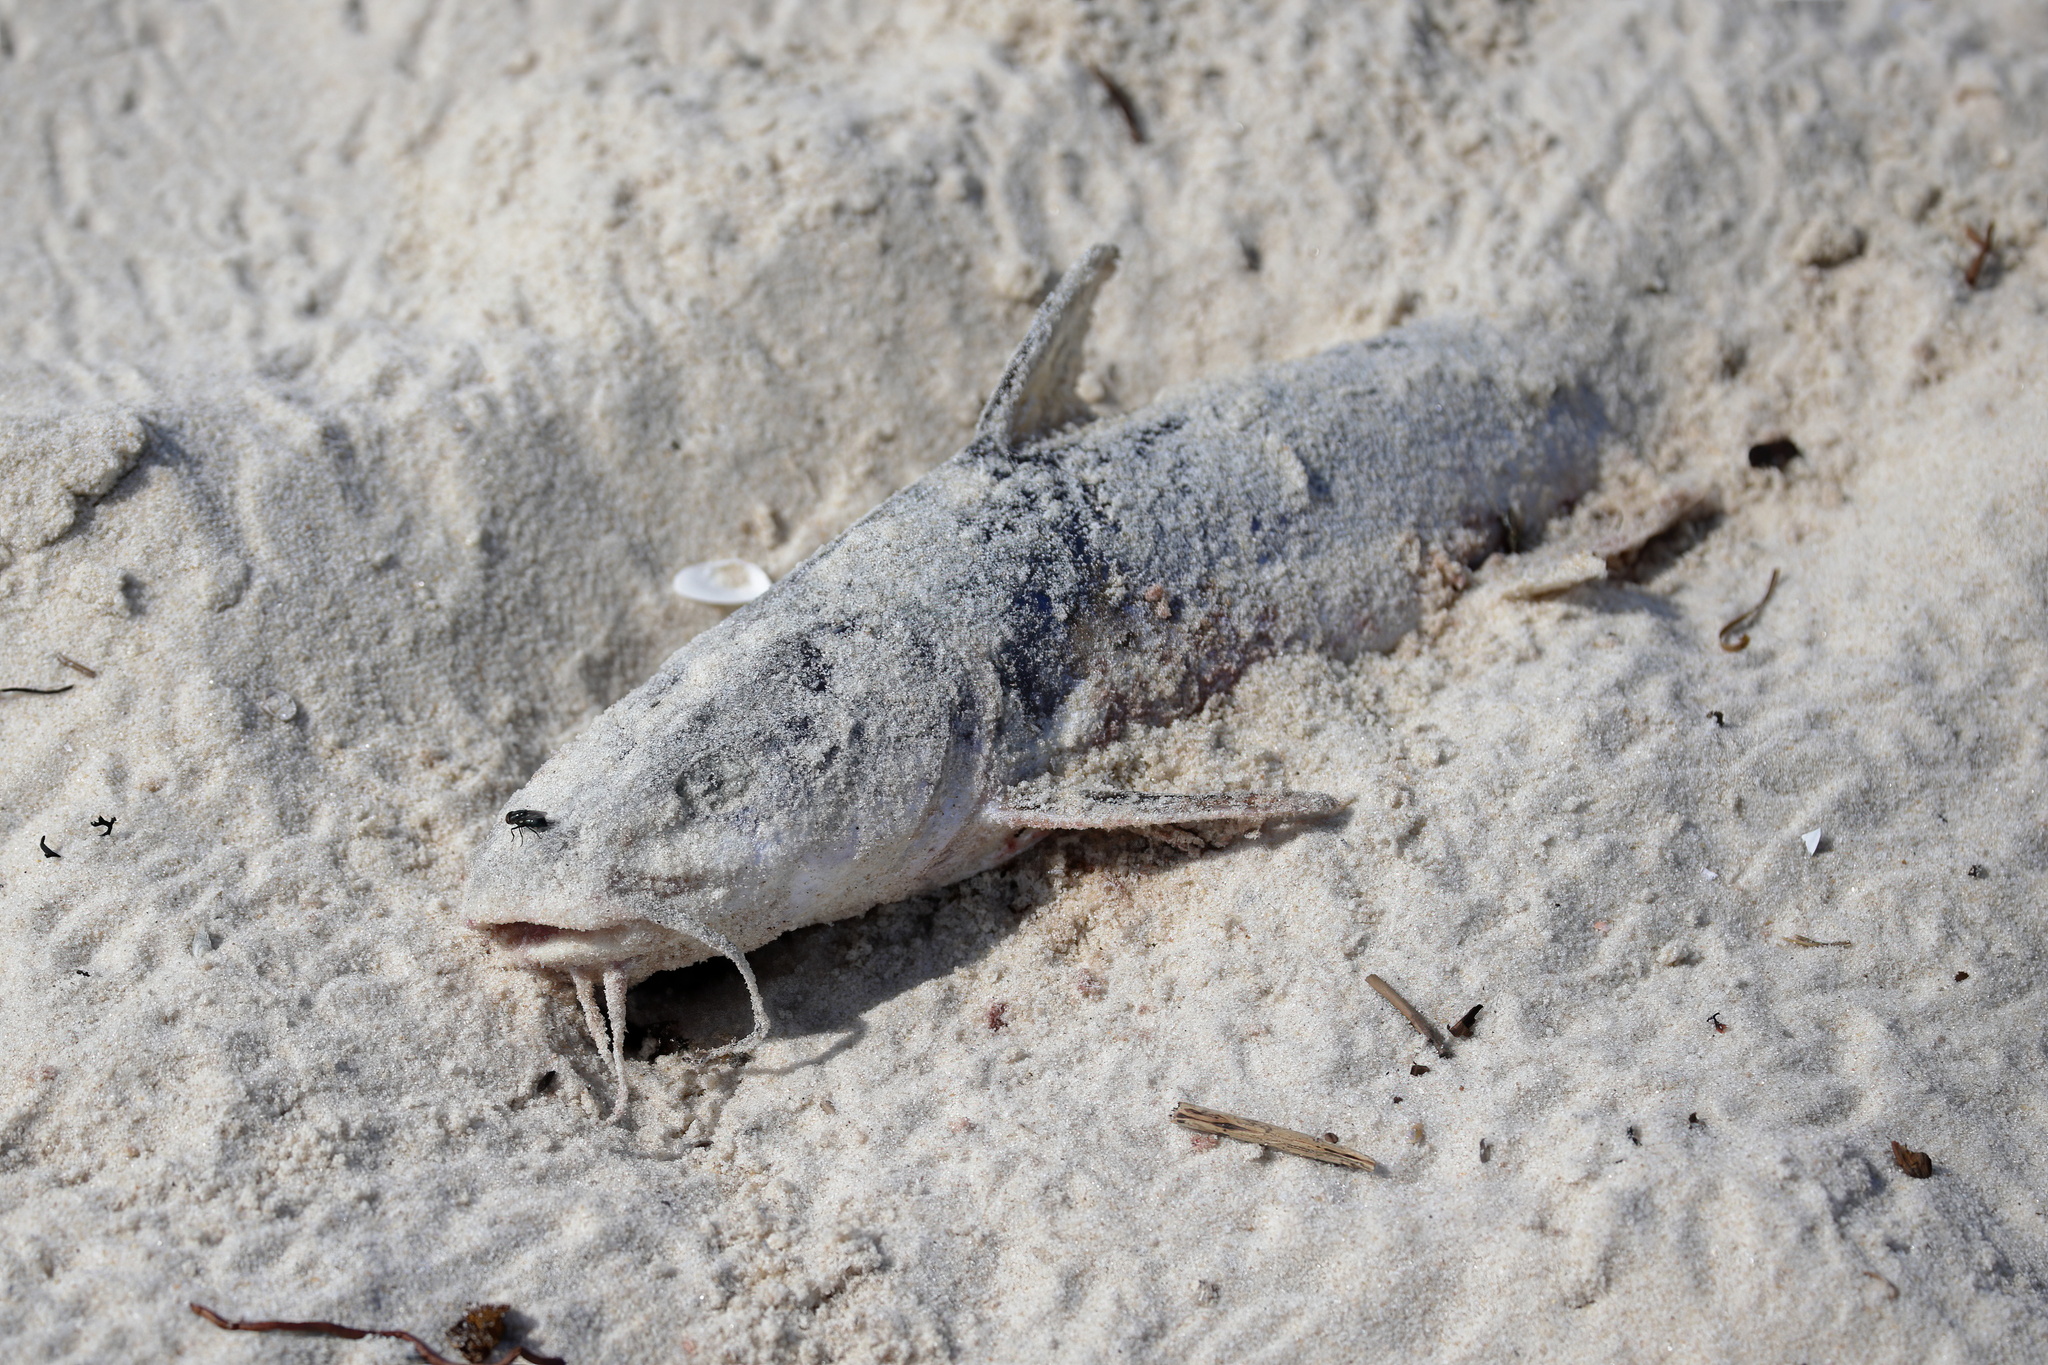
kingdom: Animalia
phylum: Chordata
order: Siluriformes
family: Ariidae
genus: Ariopsis
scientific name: Ariopsis felis
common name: Hardhead catfish
